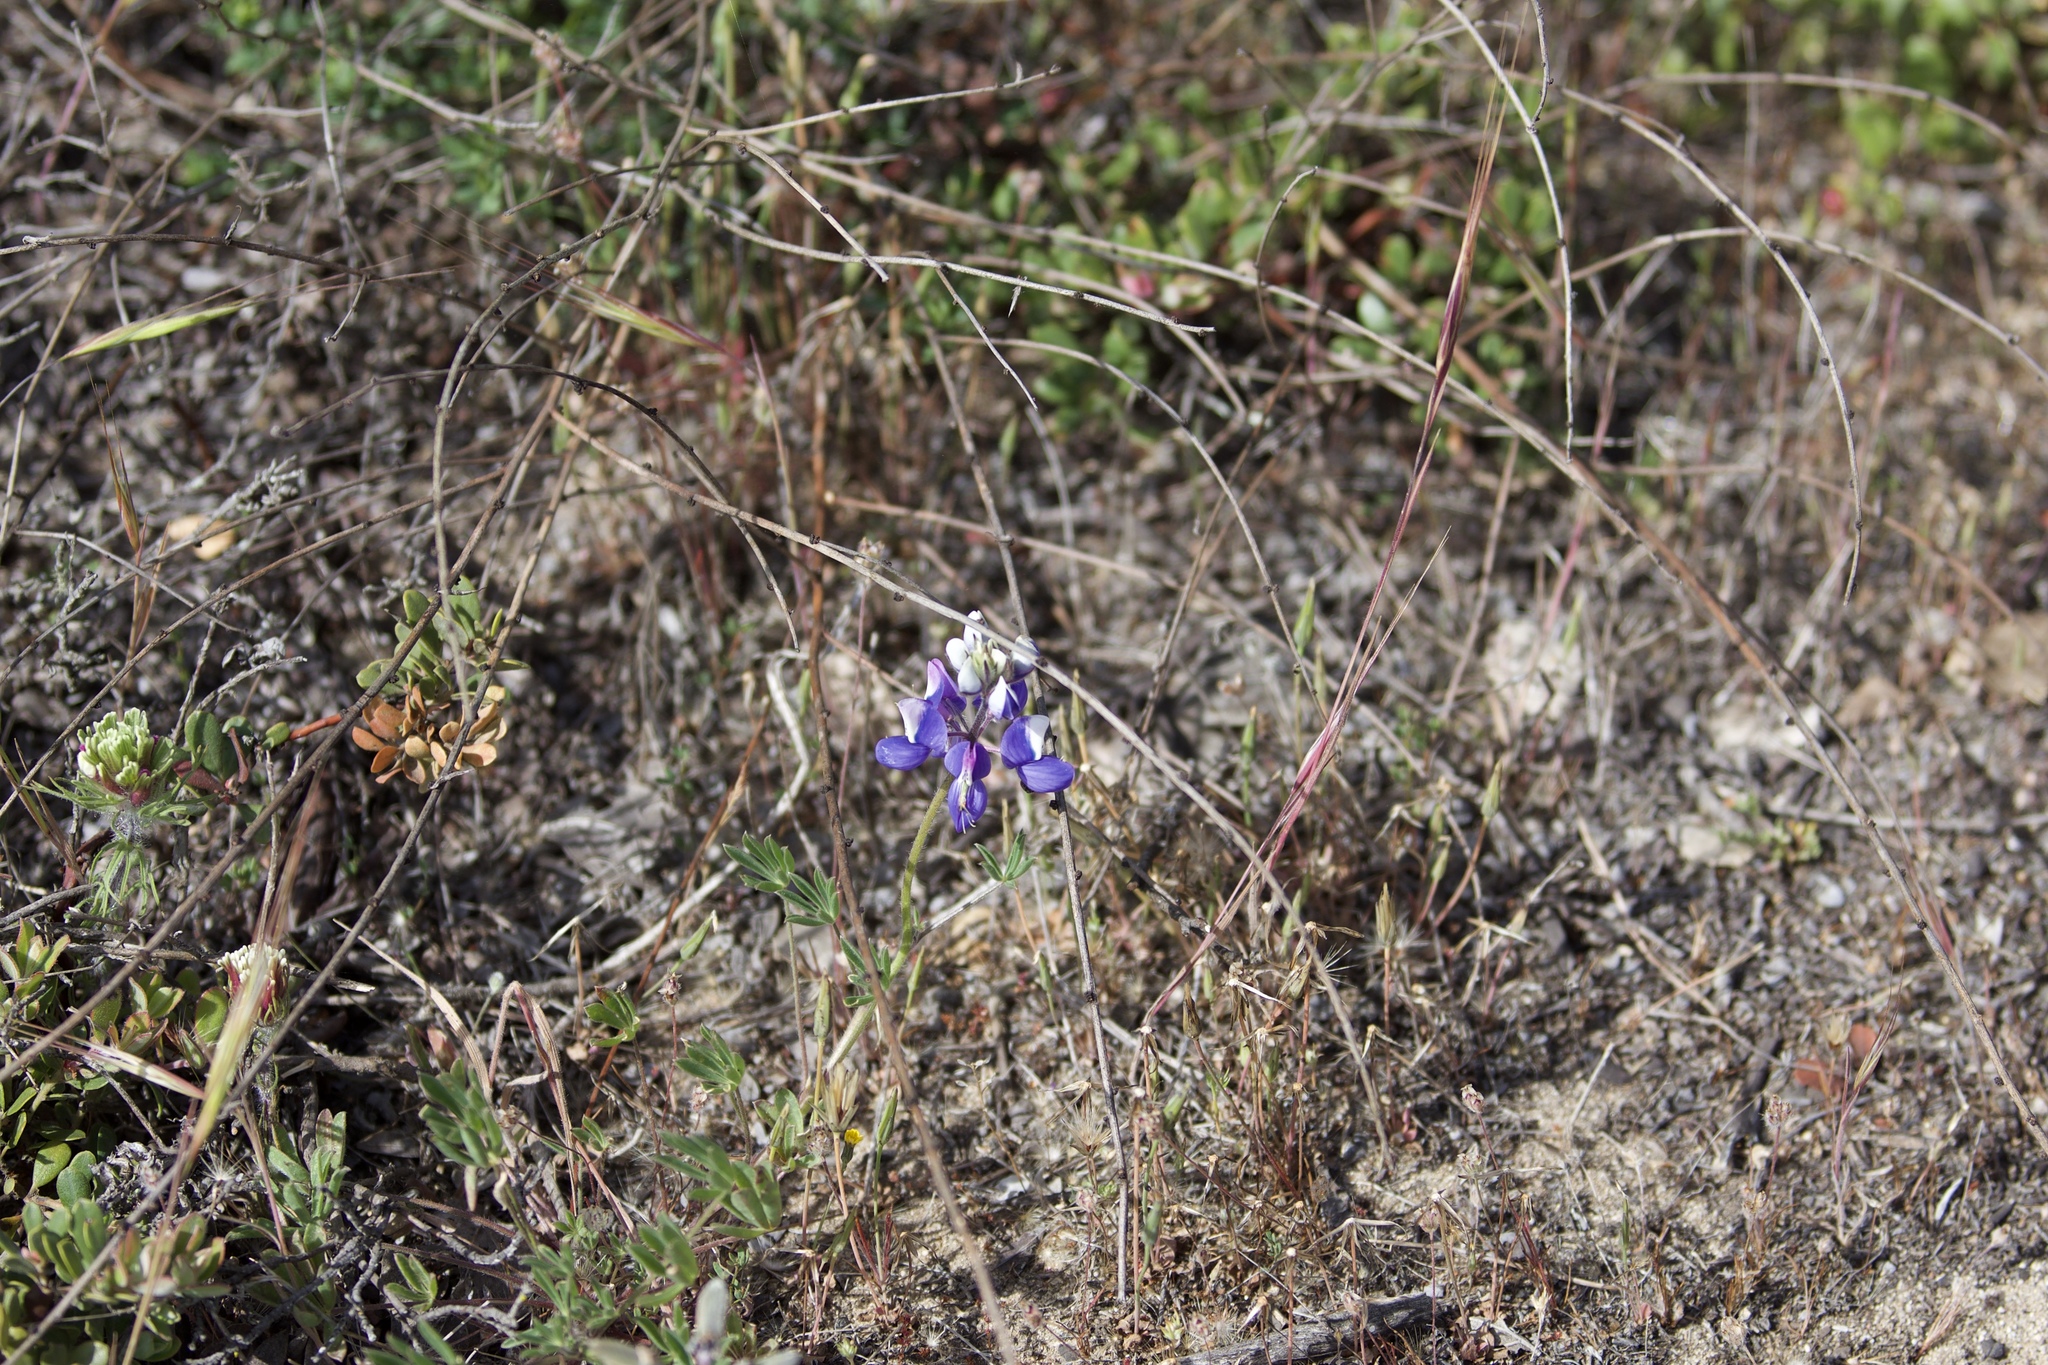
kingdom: Plantae
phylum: Tracheophyta
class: Magnoliopsida
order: Fabales
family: Fabaceae
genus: Lupinus
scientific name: Lupinus nanus
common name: Orean blue lupin
